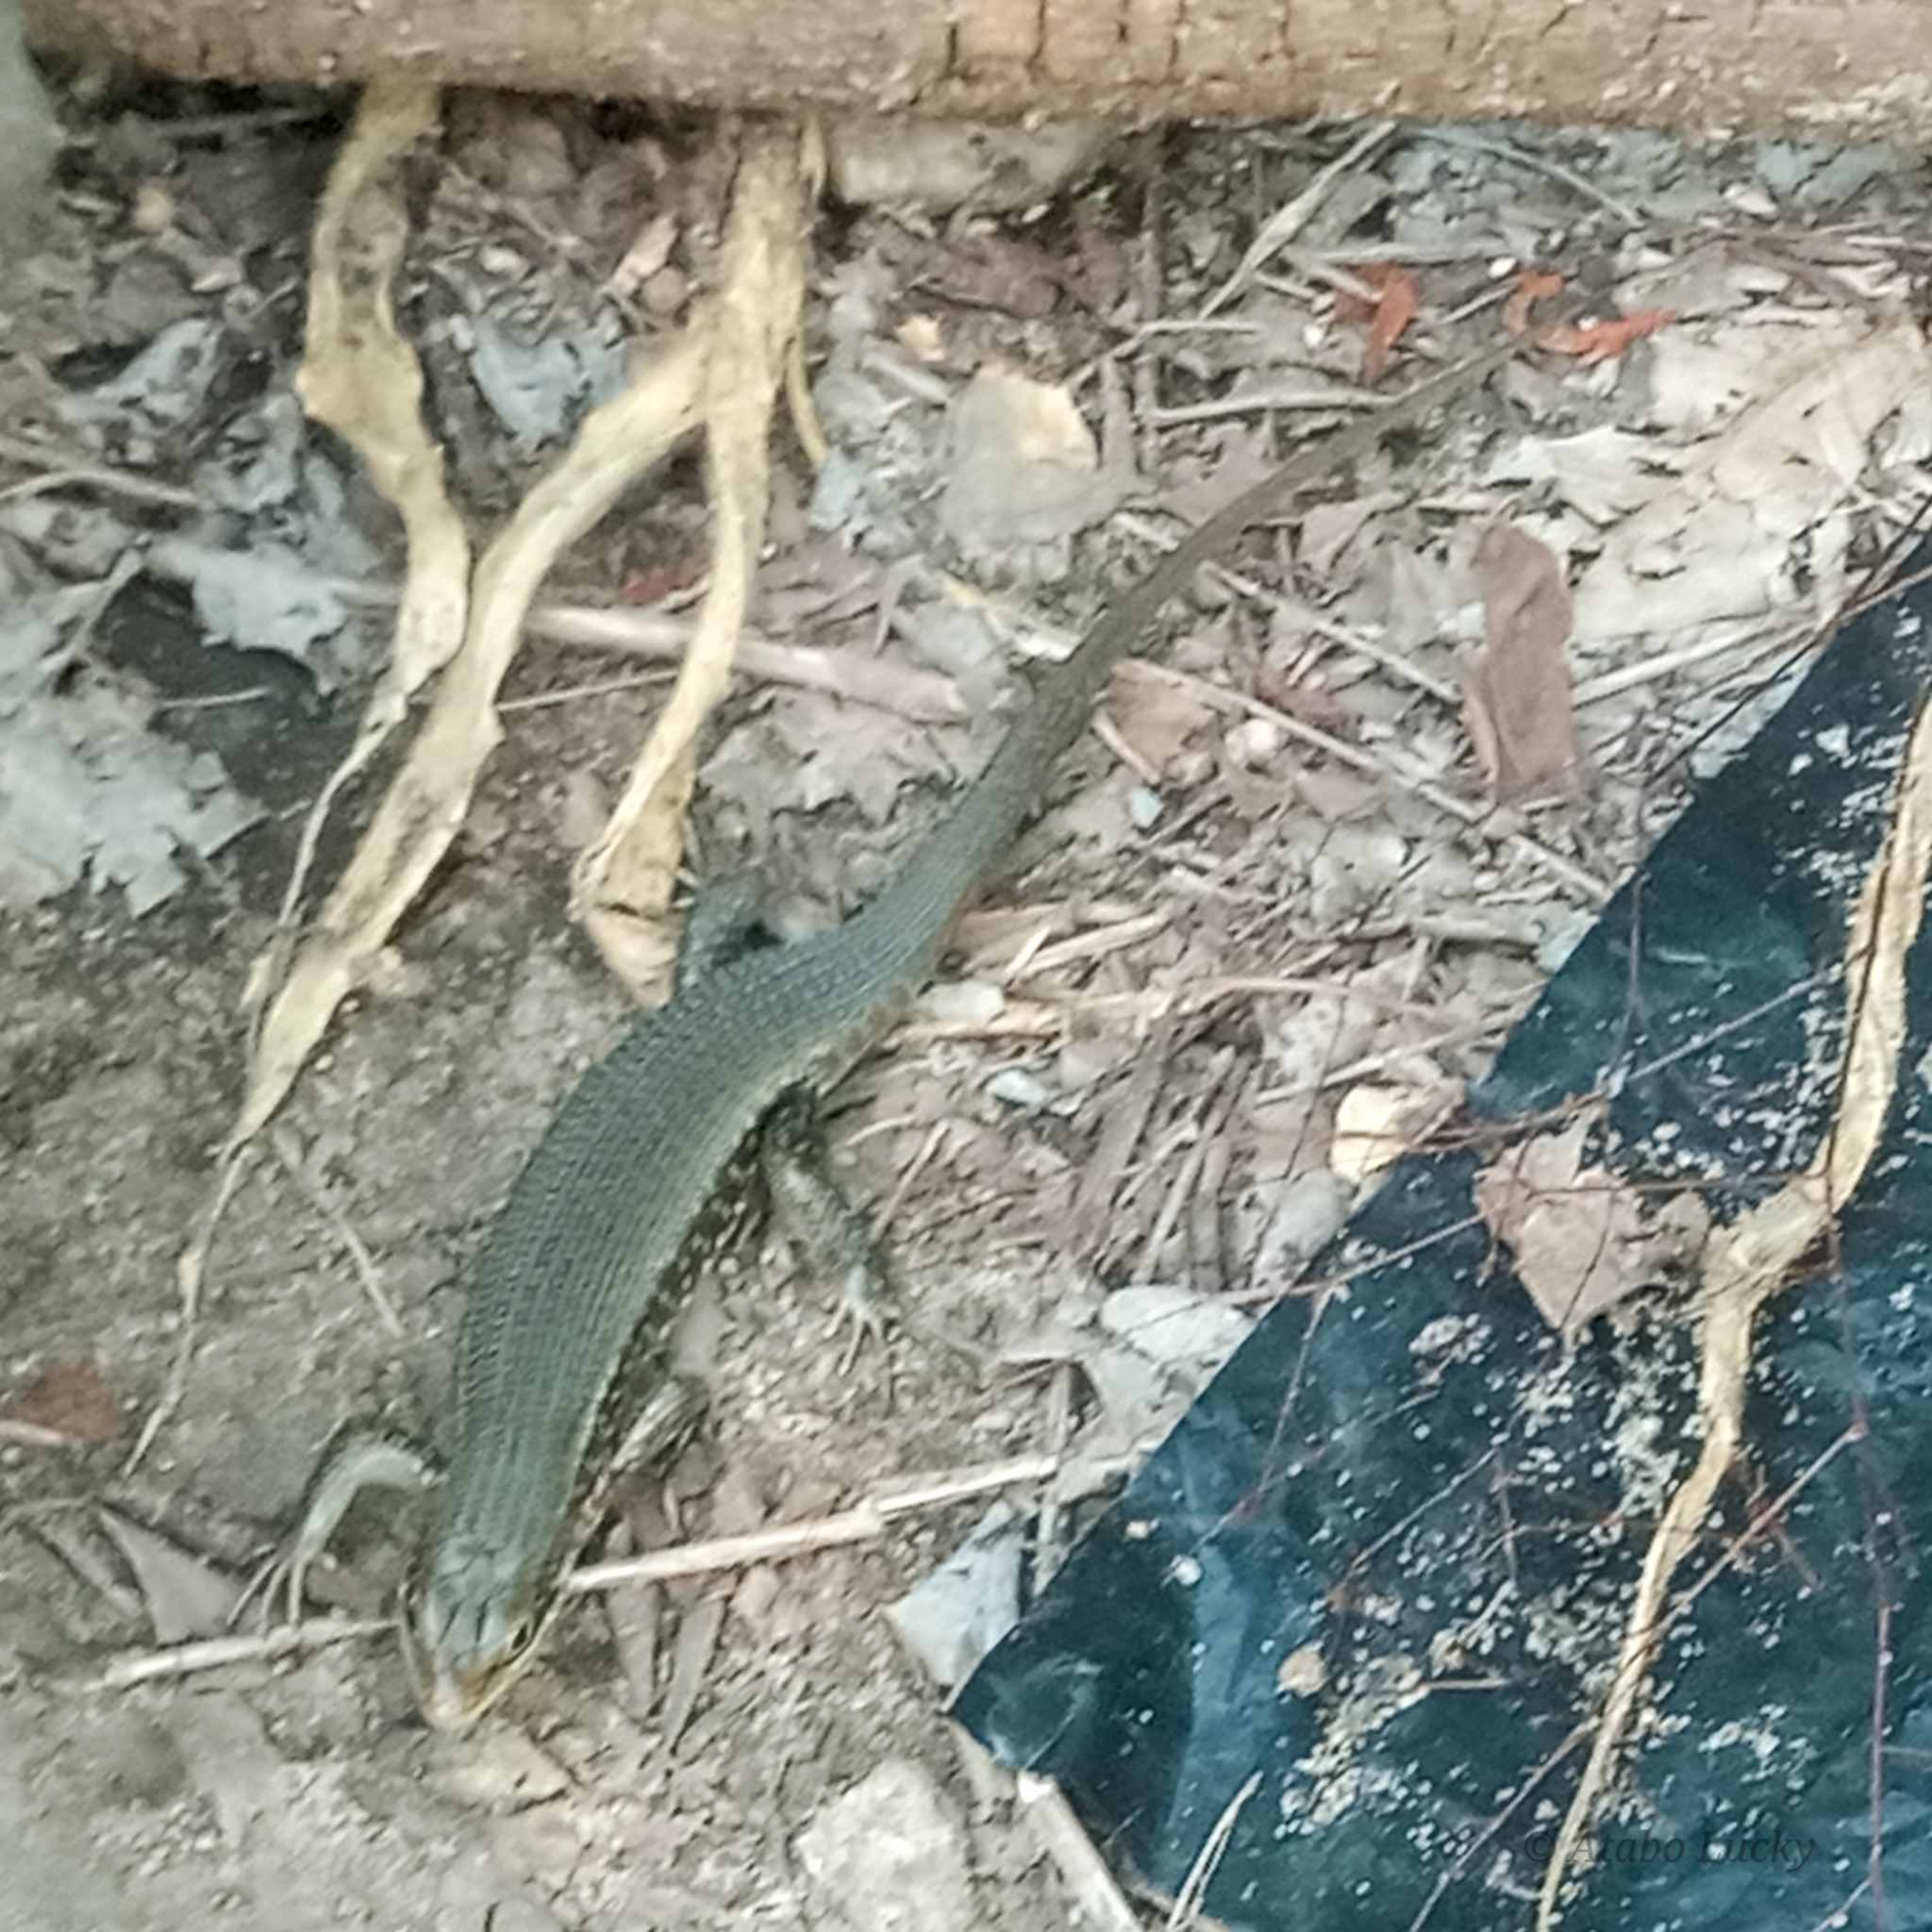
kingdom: Animalia
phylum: Chordata
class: Squamata
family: Scincidae
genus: Trachylepis
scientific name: Trachylepis perrotetii
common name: Teita mabuya
